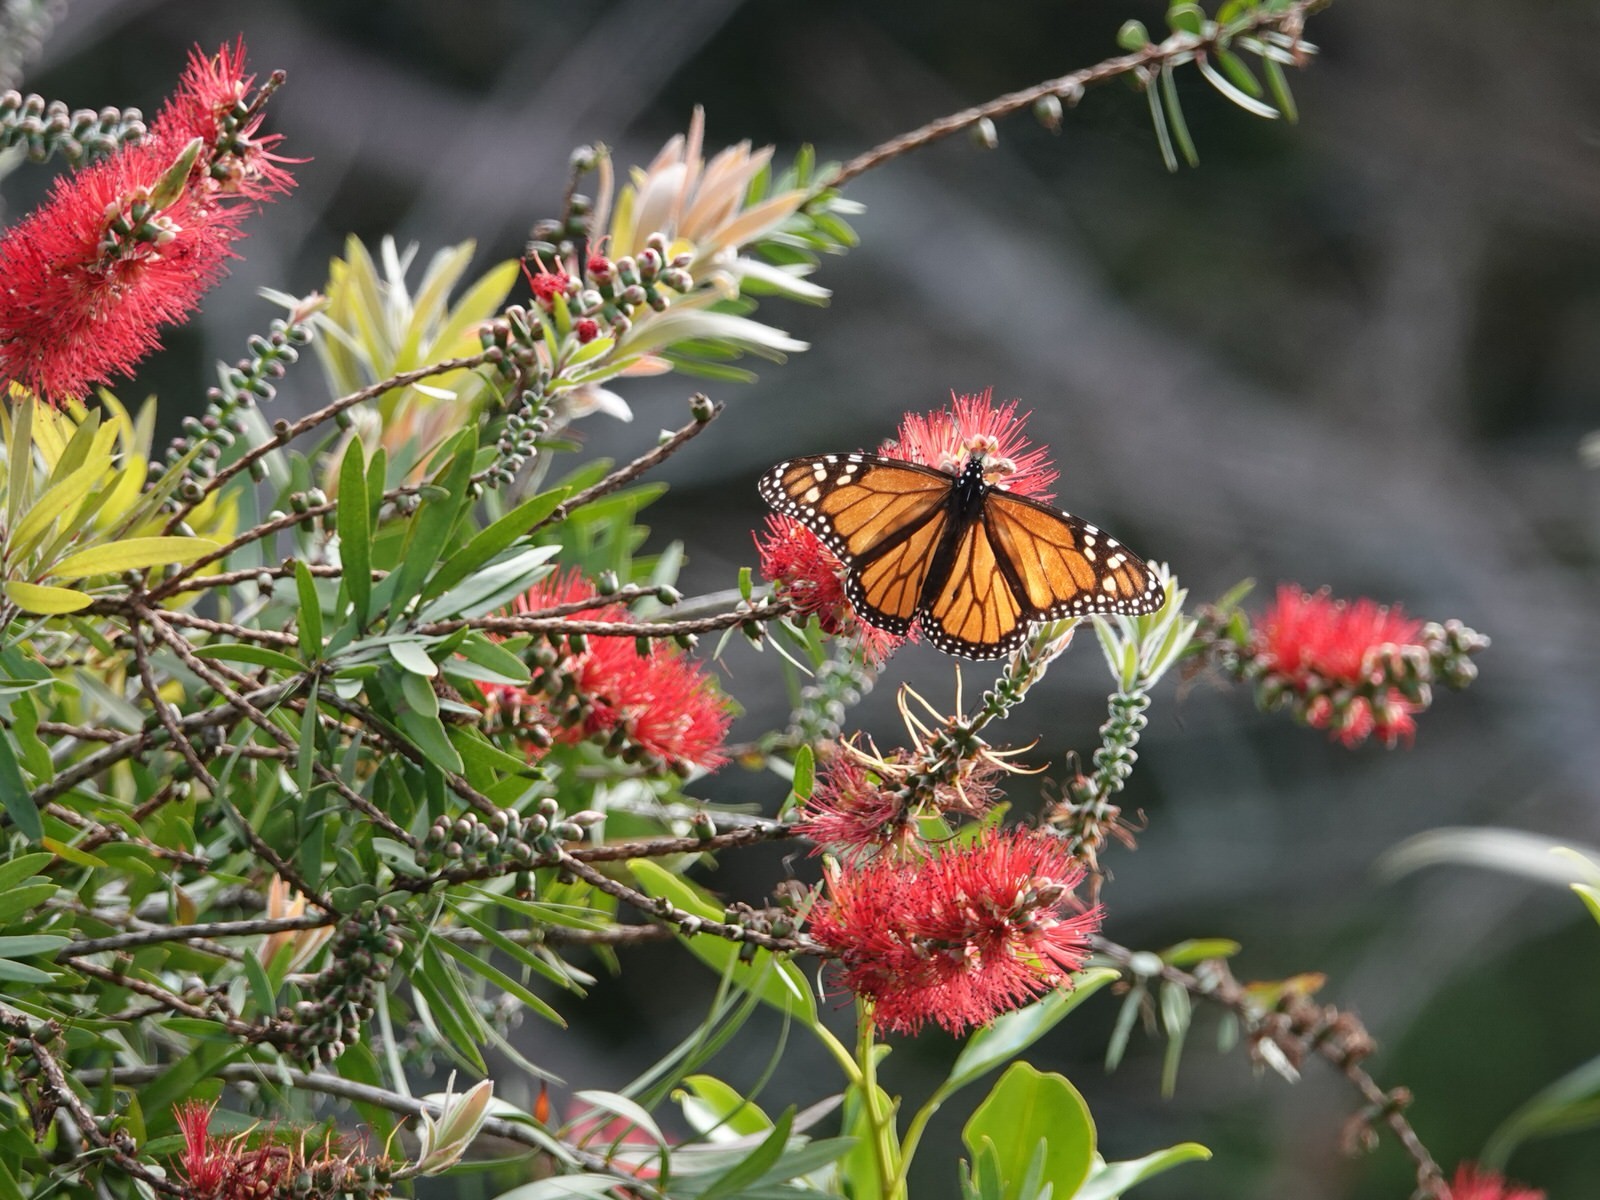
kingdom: Animalia
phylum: Arthropoda
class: Insecta
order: Lepidoptera
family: Nymphalidae
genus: Danaus
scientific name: Danaus plexippus
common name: Monarch
